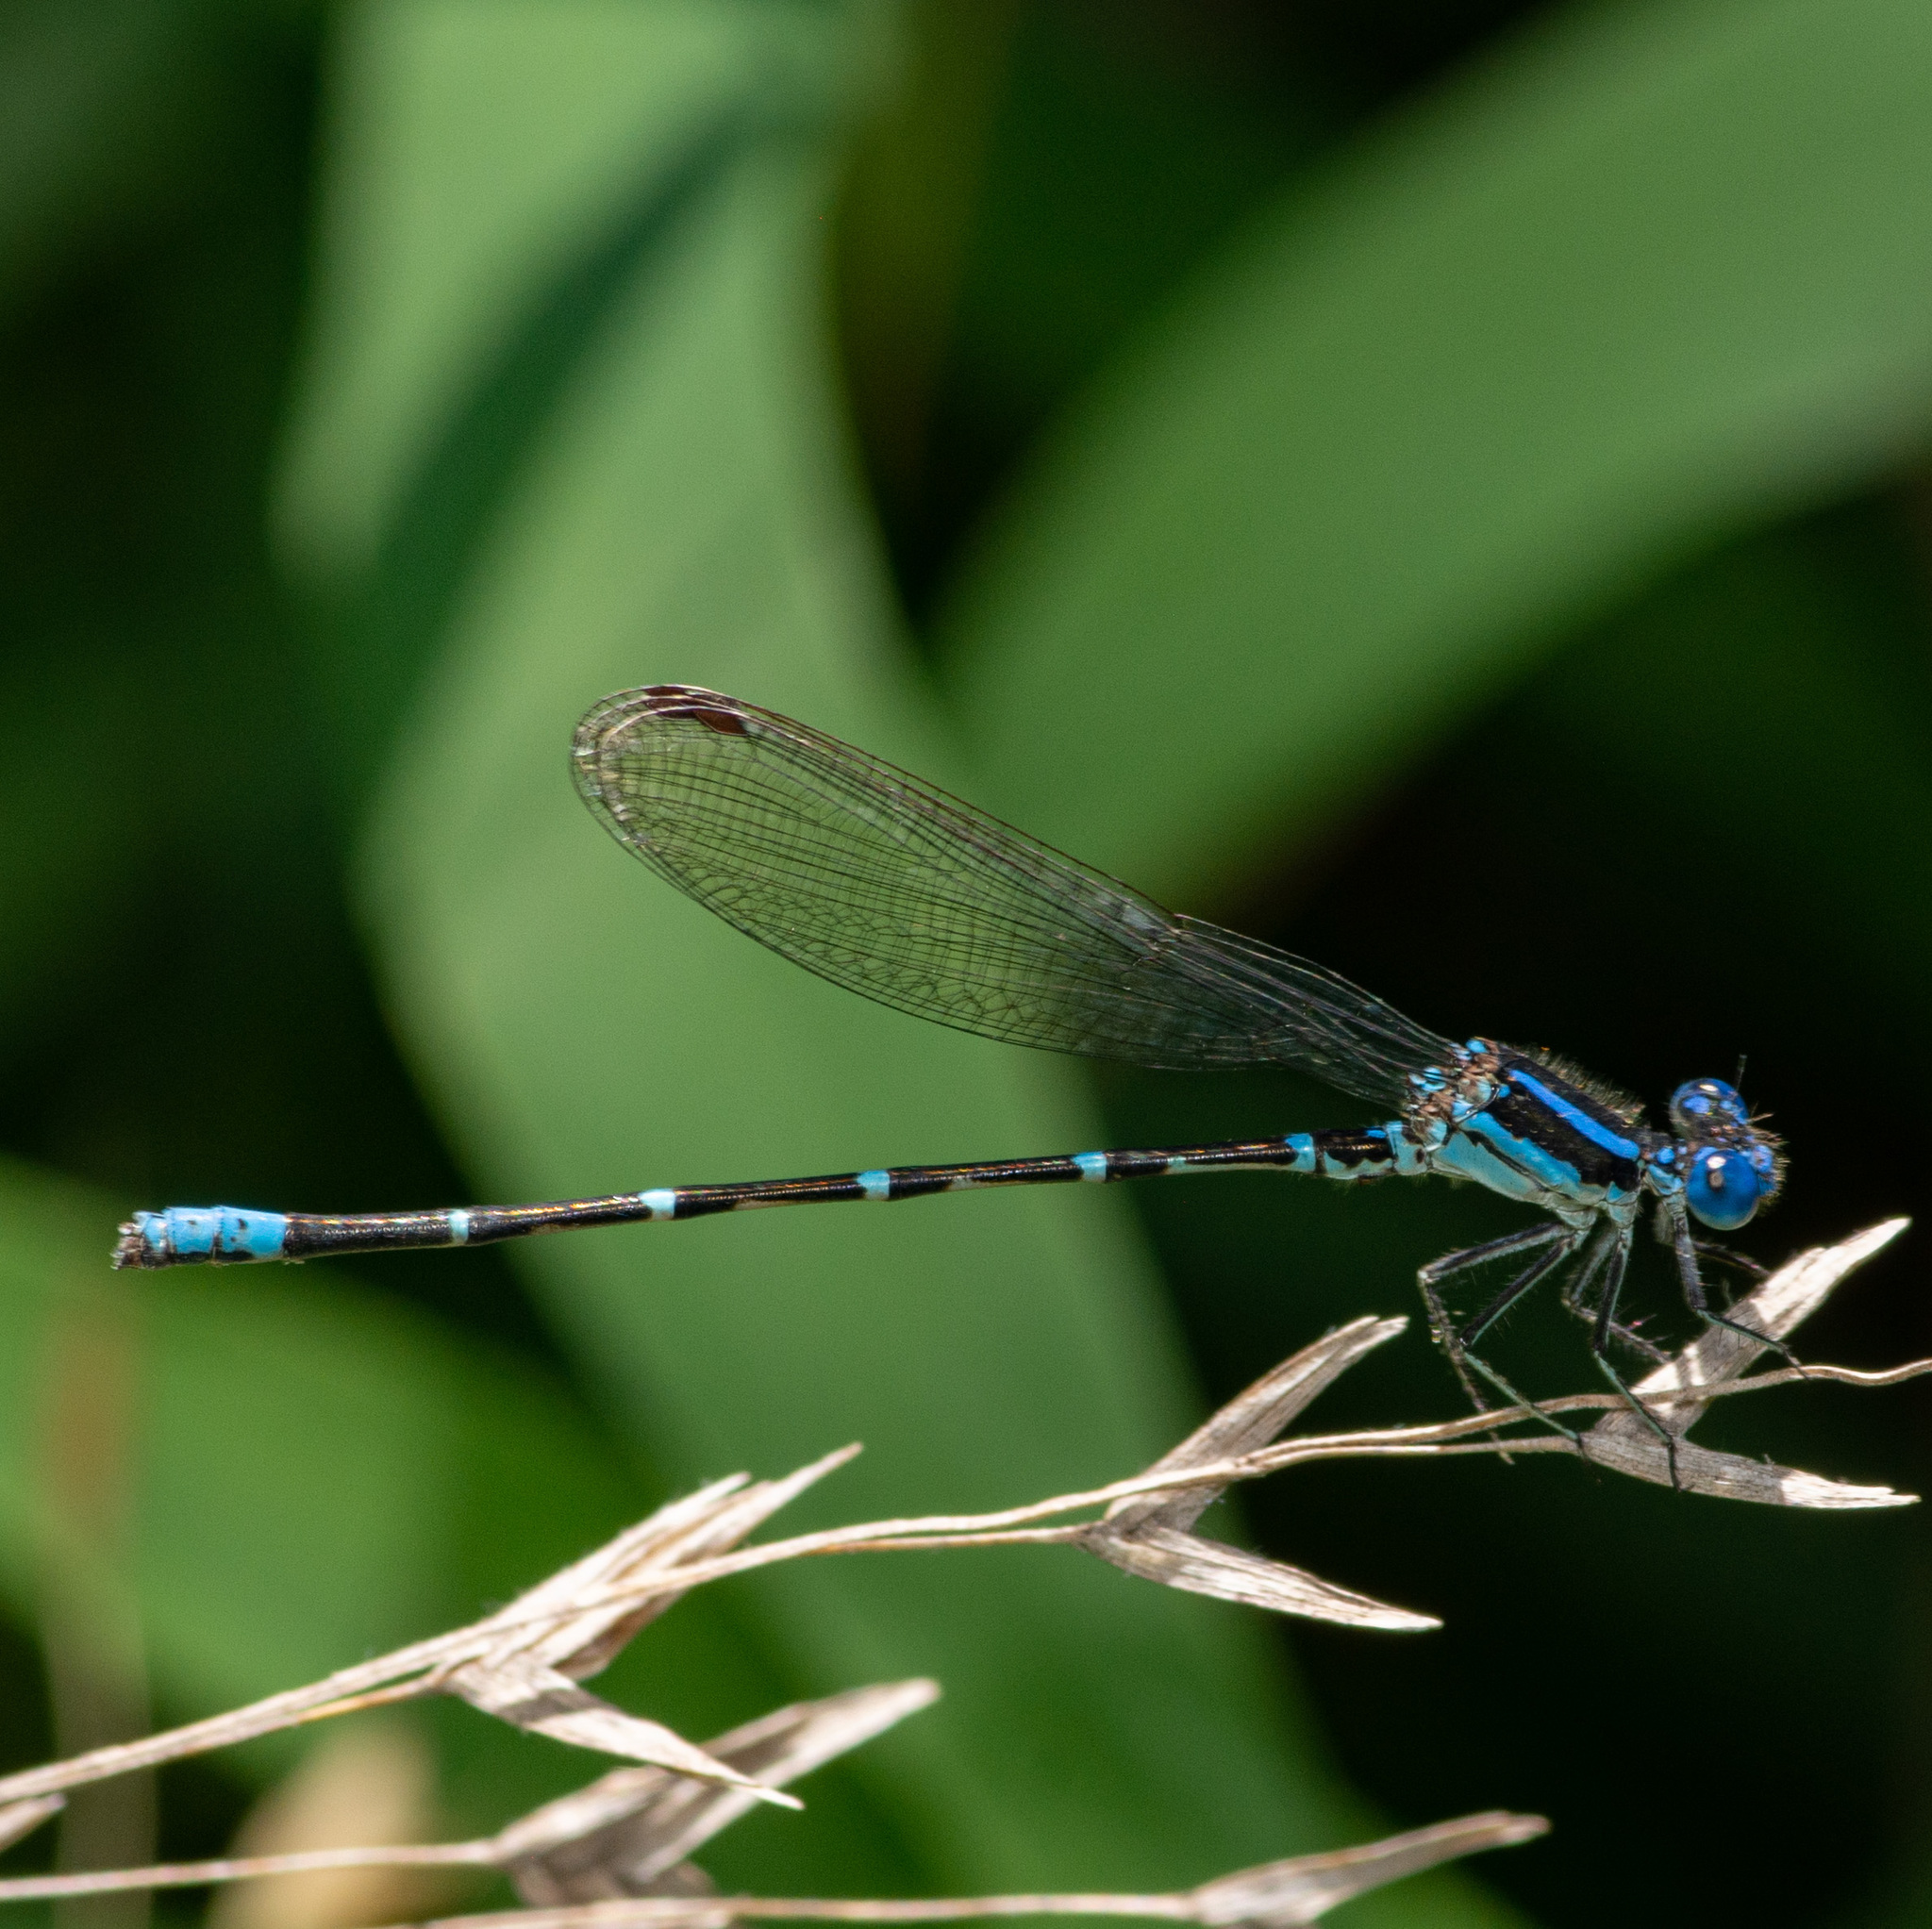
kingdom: Animalia
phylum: Arthropoda
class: Insecta
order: Odonata
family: Coenagrionidae
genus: Argia
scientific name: Argia sedula
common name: Blue-ringed dancer
